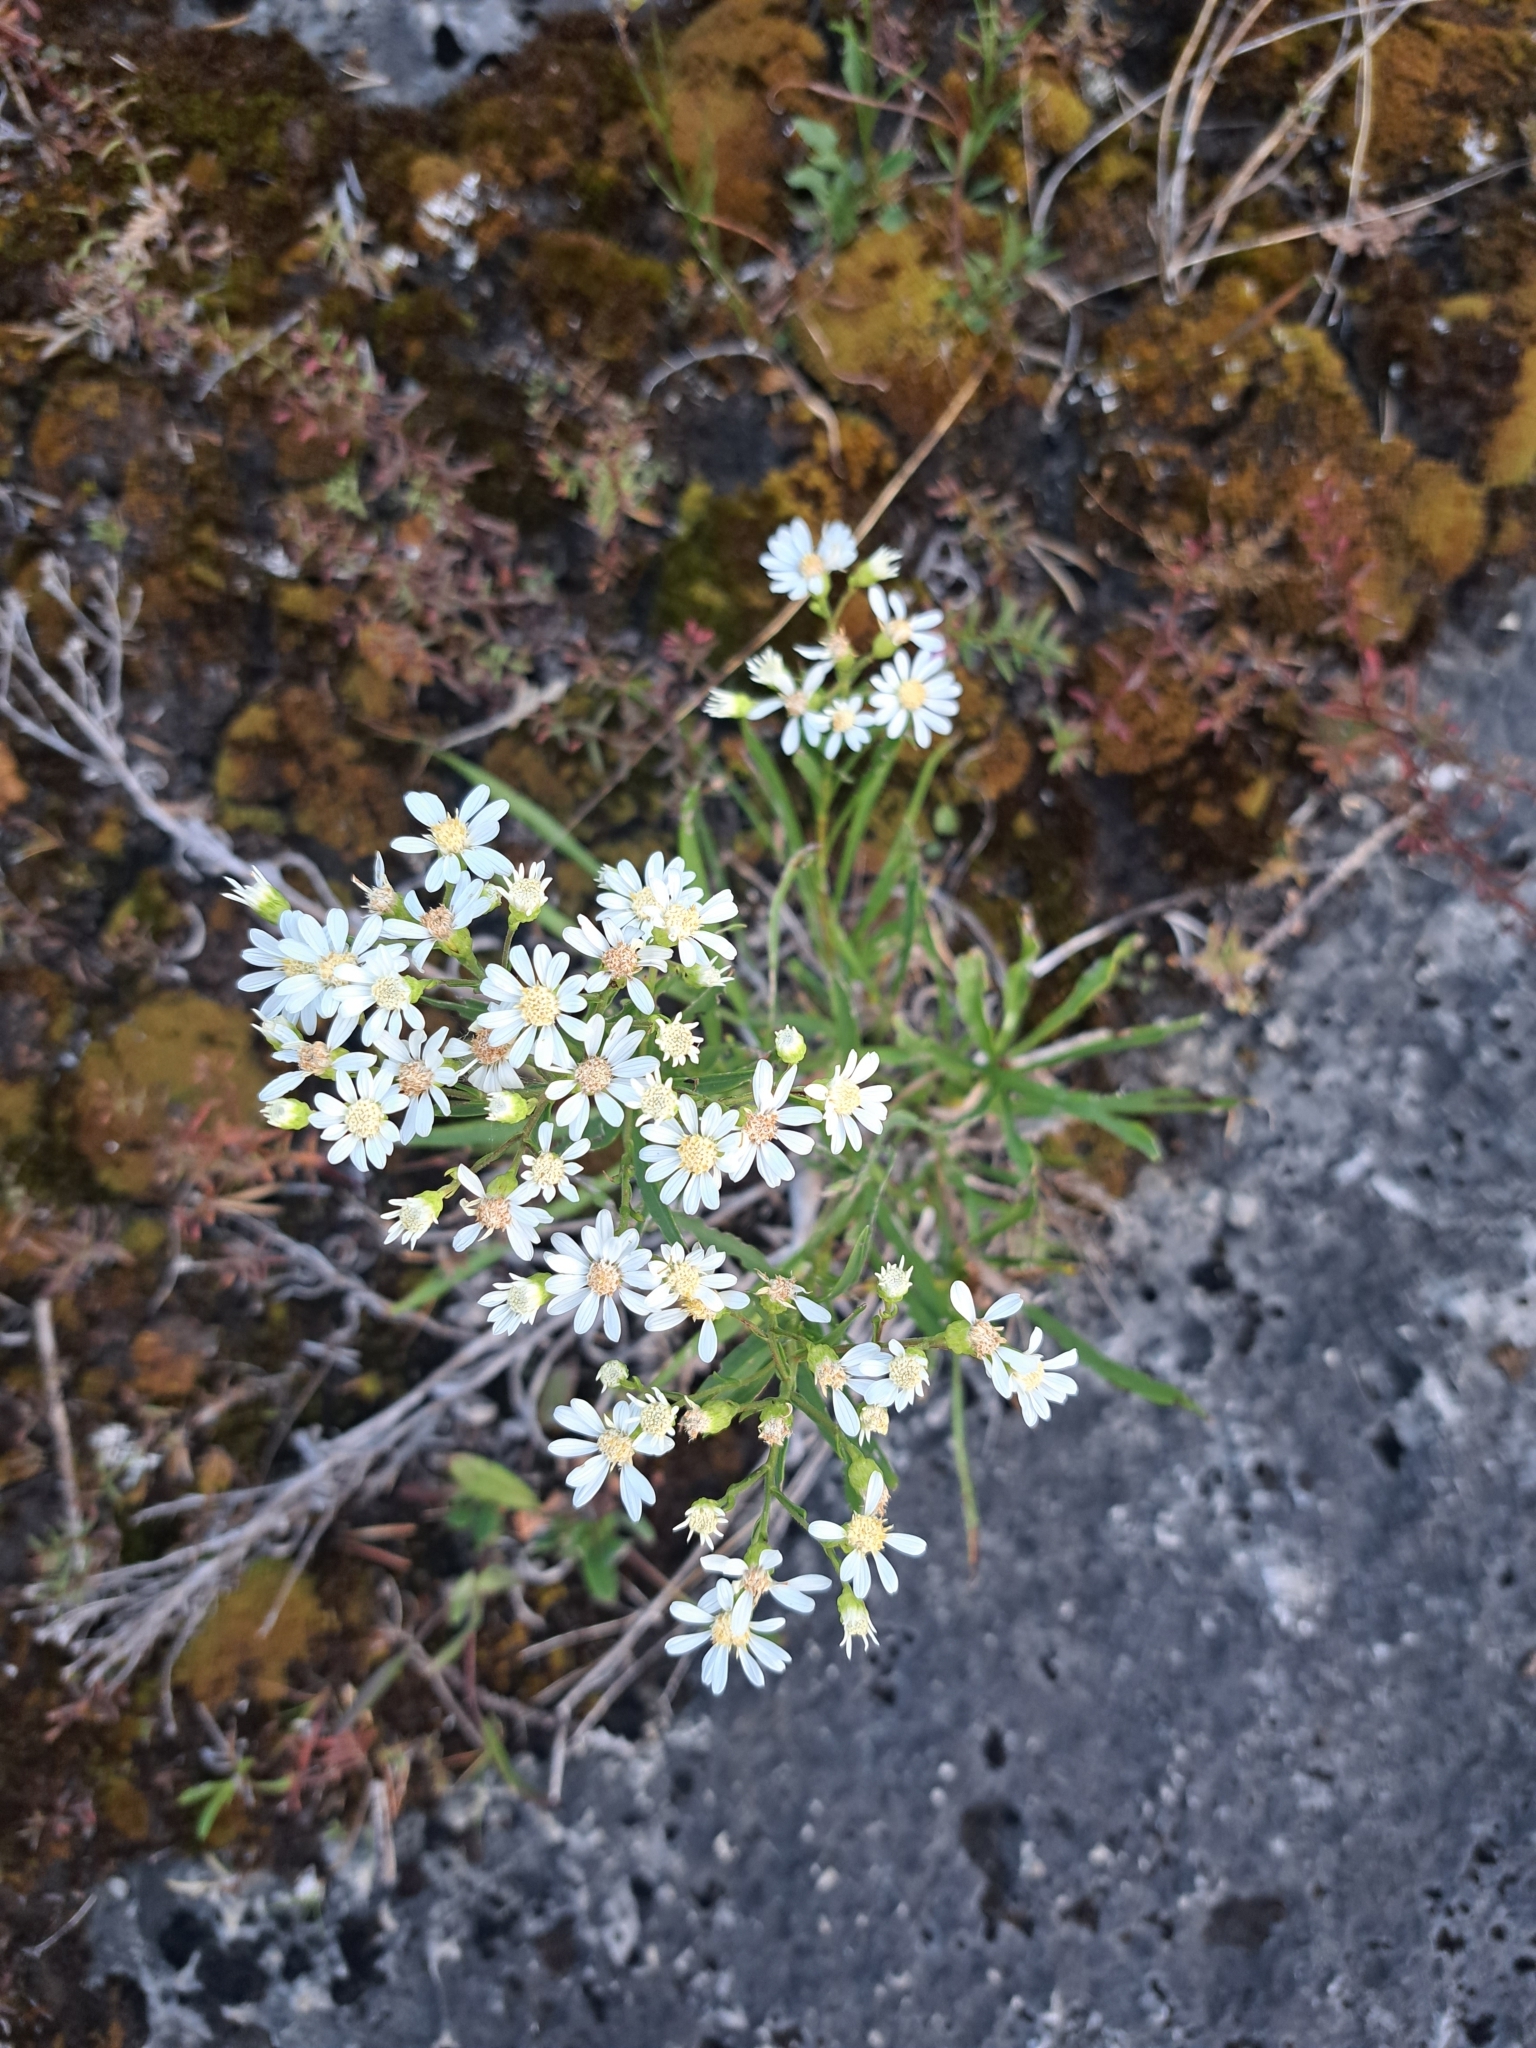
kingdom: Plantae
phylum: Tracheophyta
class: Magnoliopsida
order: Asterales
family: Asteraceae
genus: Solidago
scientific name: Solidago ptarmicoides
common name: White flat-top goldenrod
